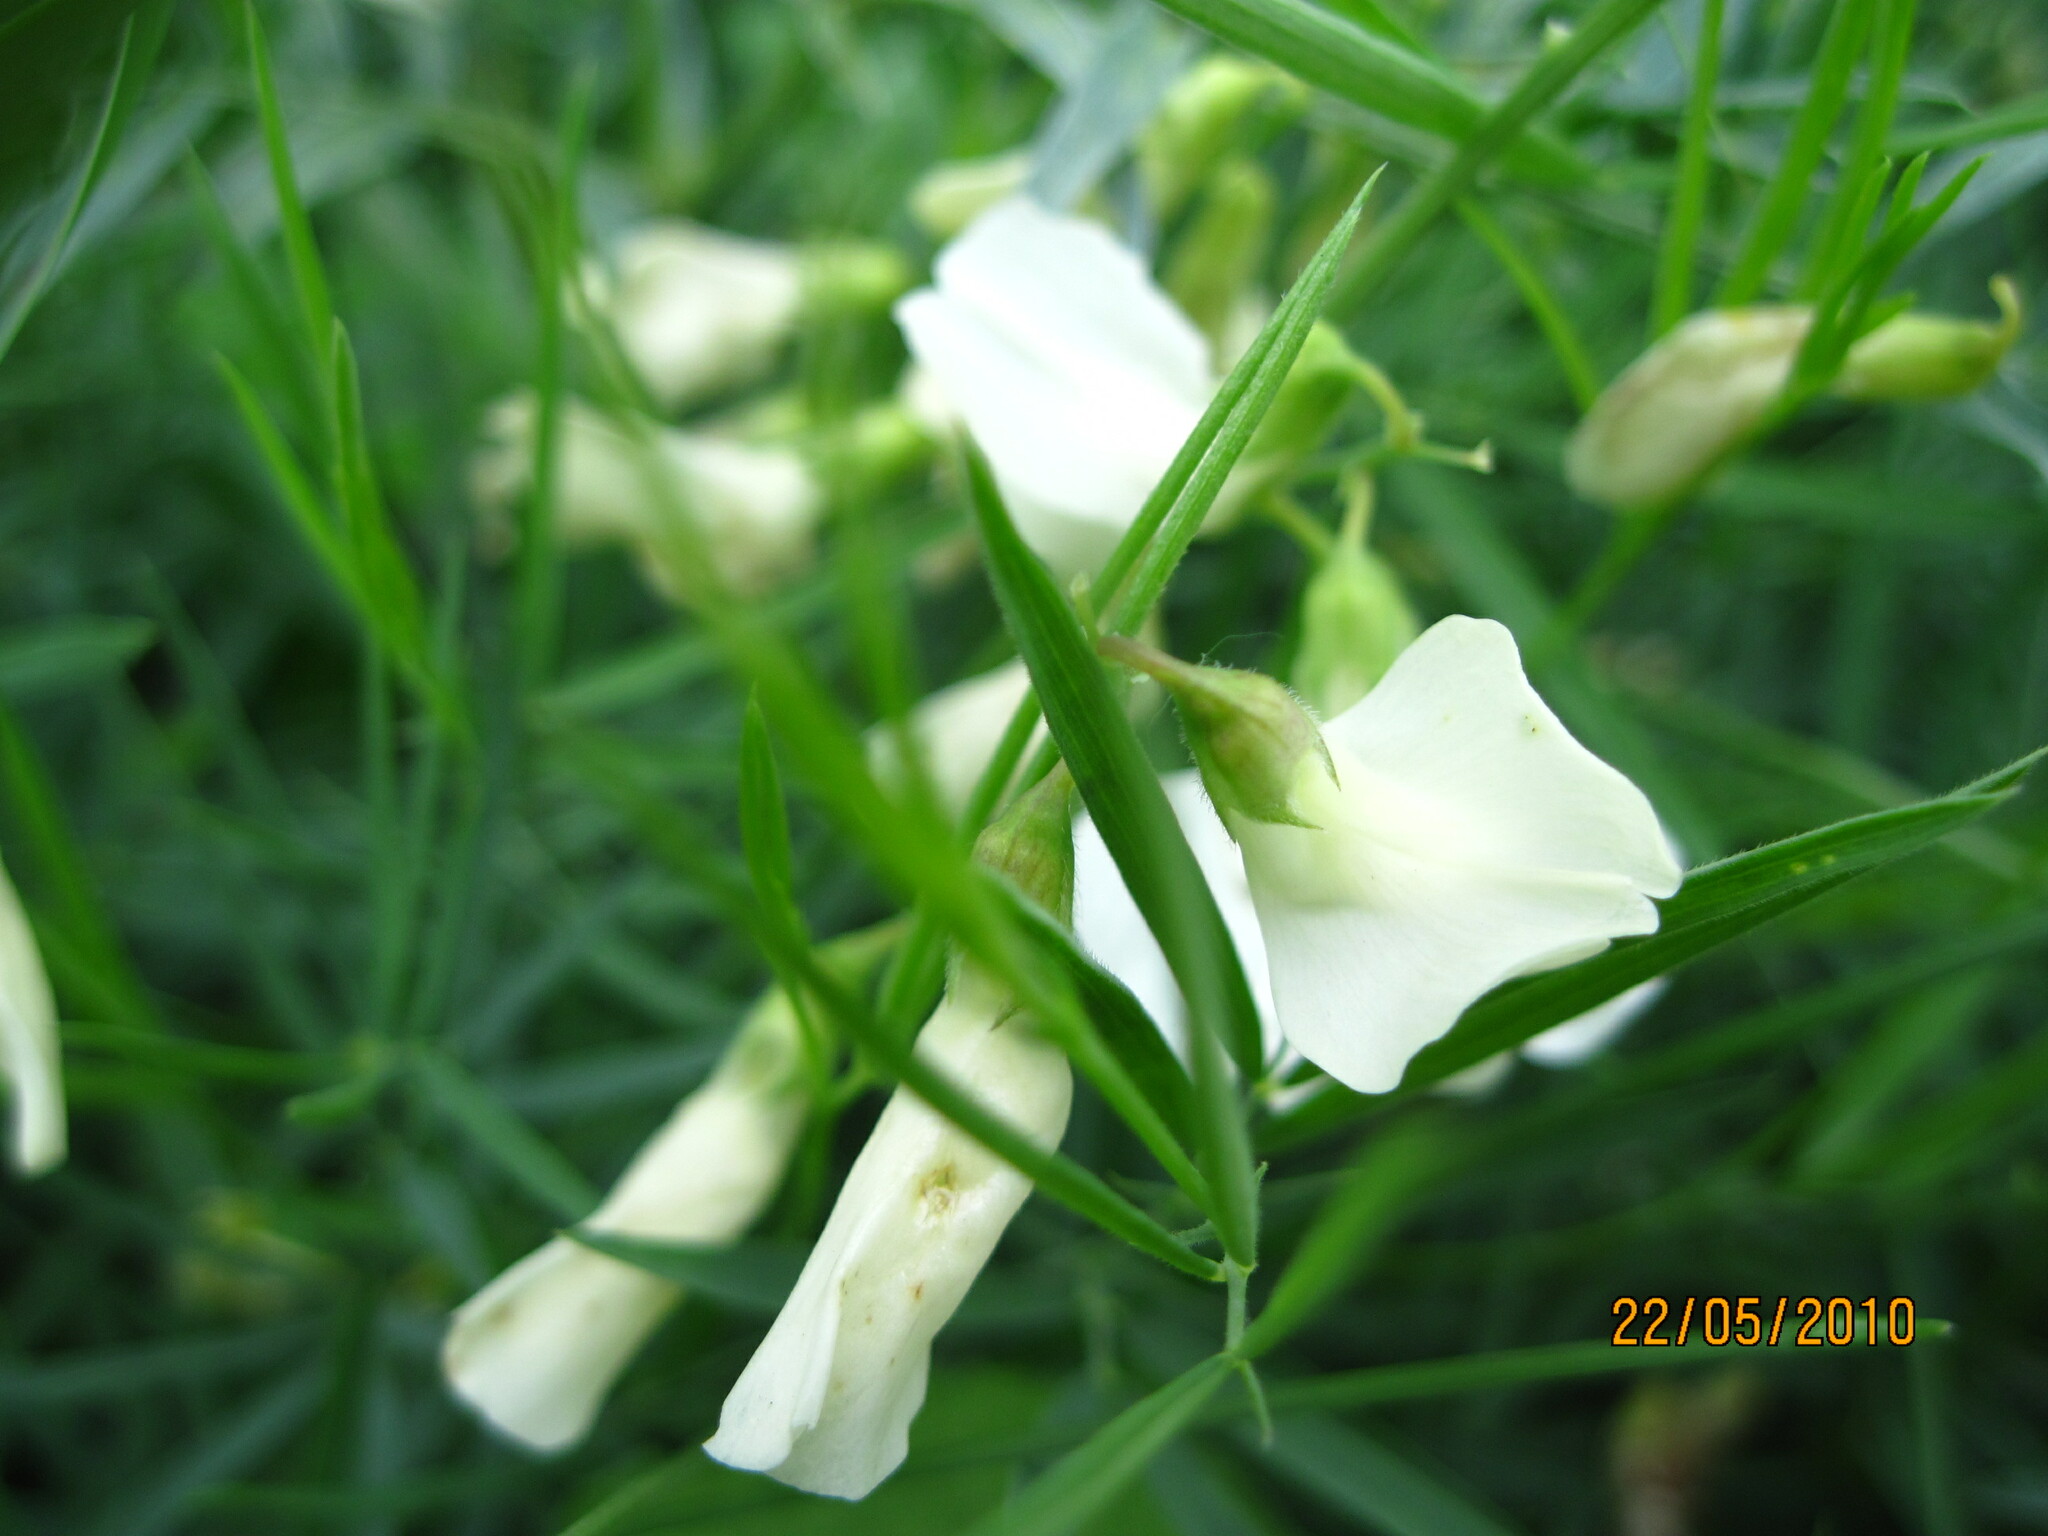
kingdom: Plantae
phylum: Tracheophyta
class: Magnoliopsida
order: Fabales
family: Fabaceae
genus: Lathyrus
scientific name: Lathyrus pallescens
